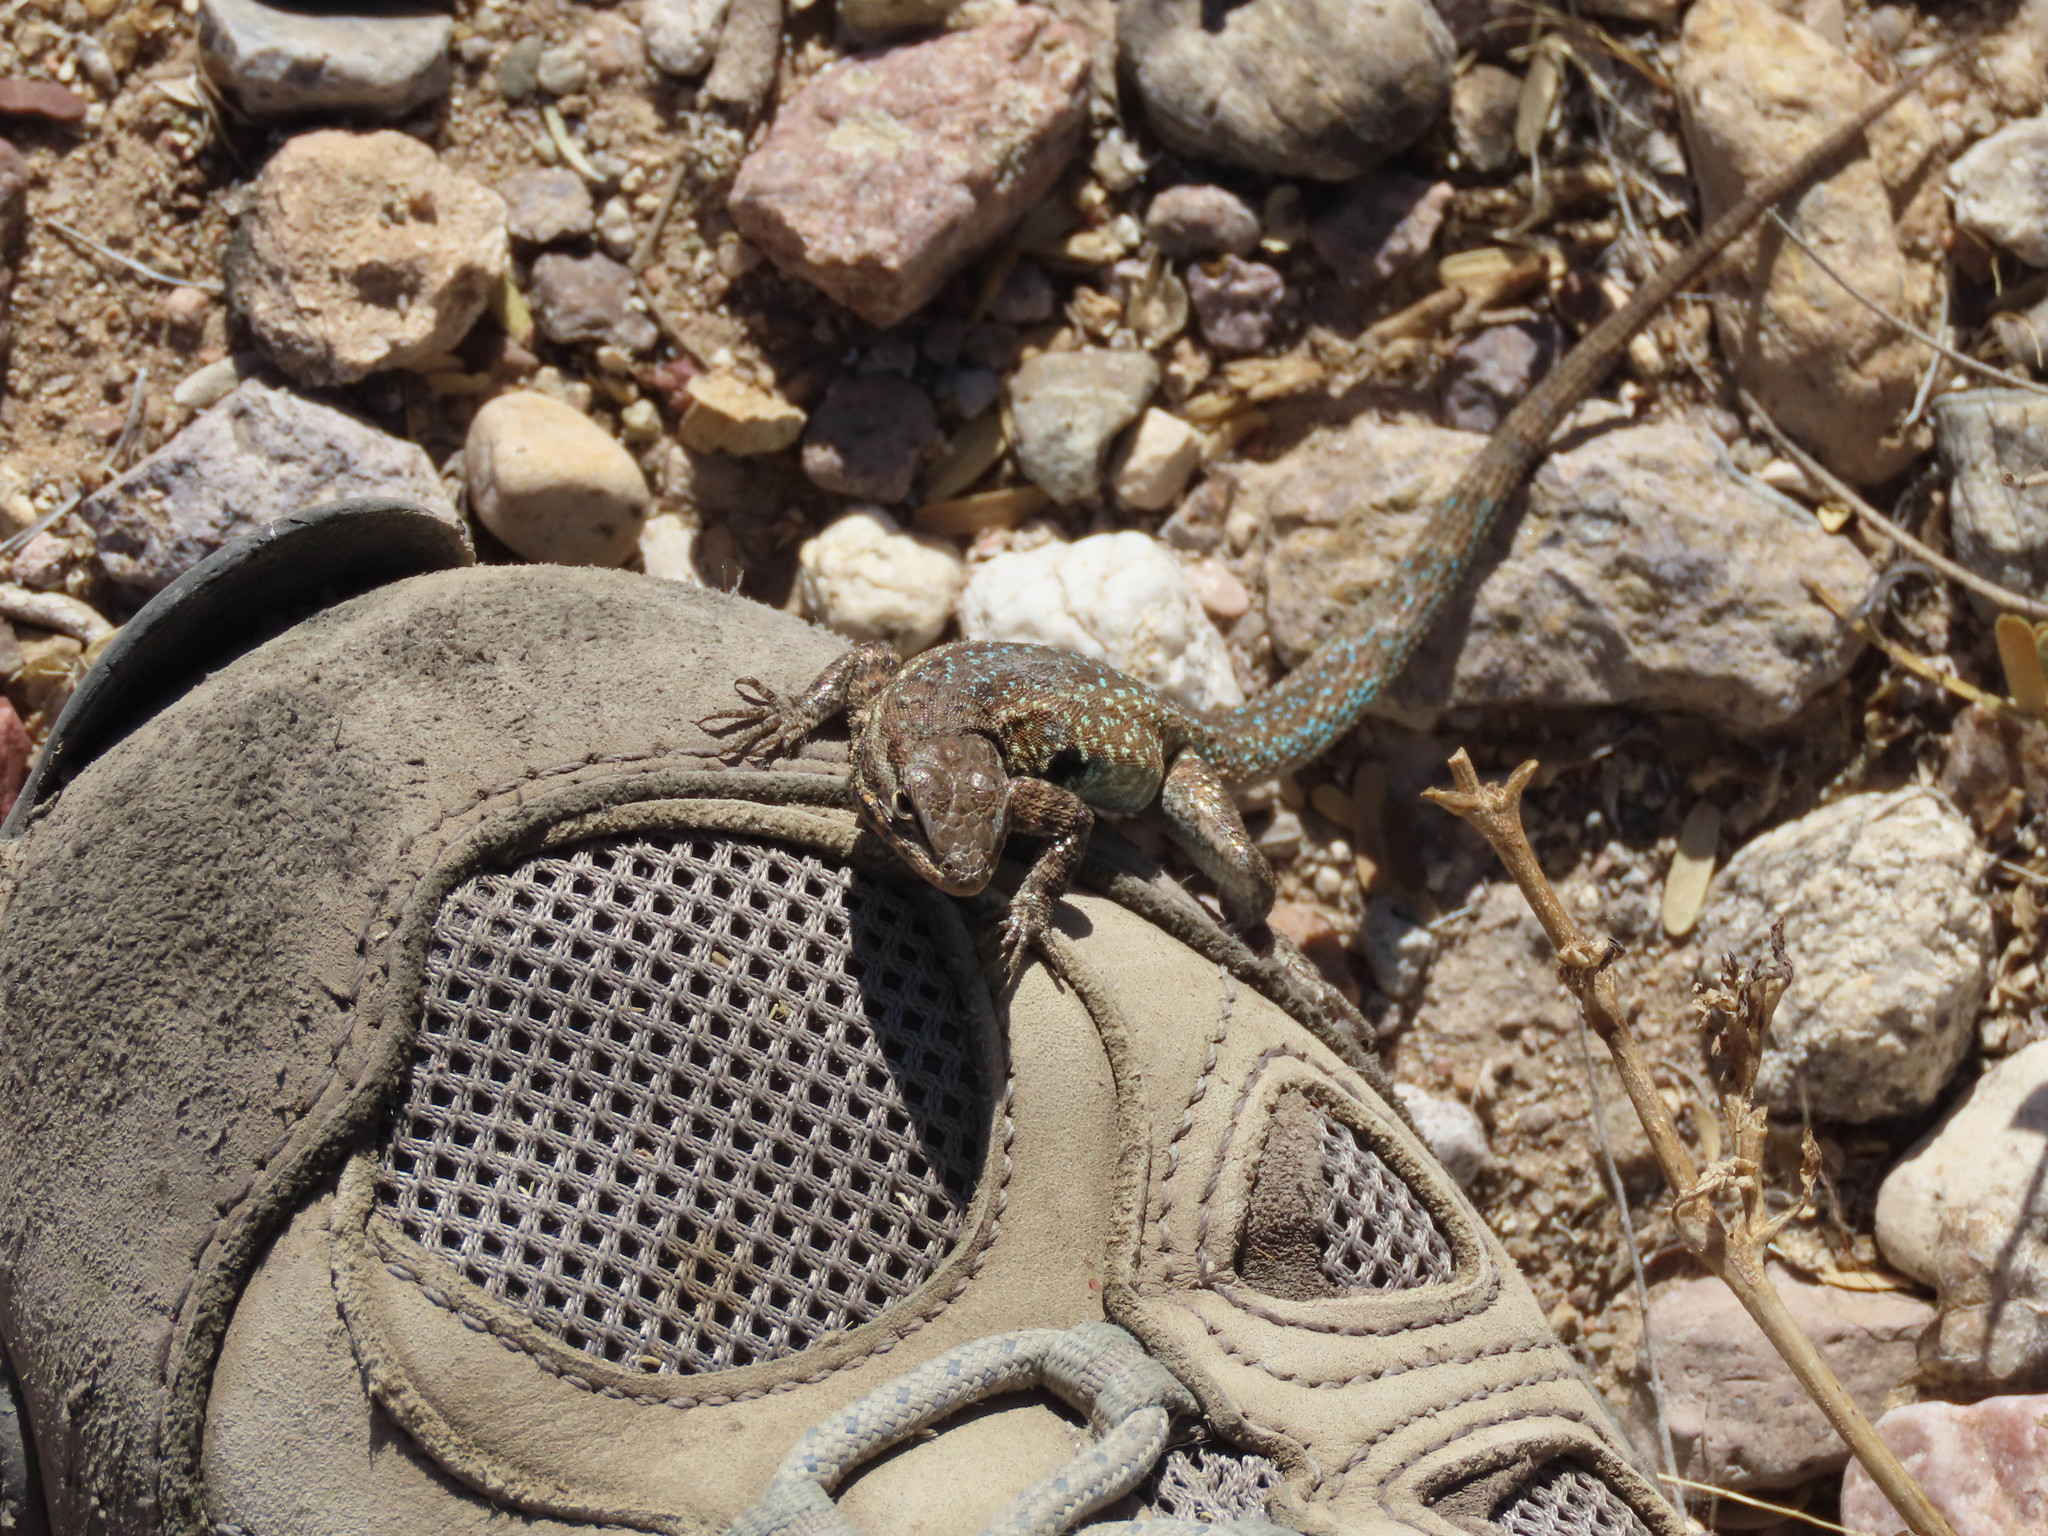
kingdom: Animalia
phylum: Chordata
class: Squamata
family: Phrynosomatidae
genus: Uta
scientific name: Uta stansburiana
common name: Side-blotched lizard
